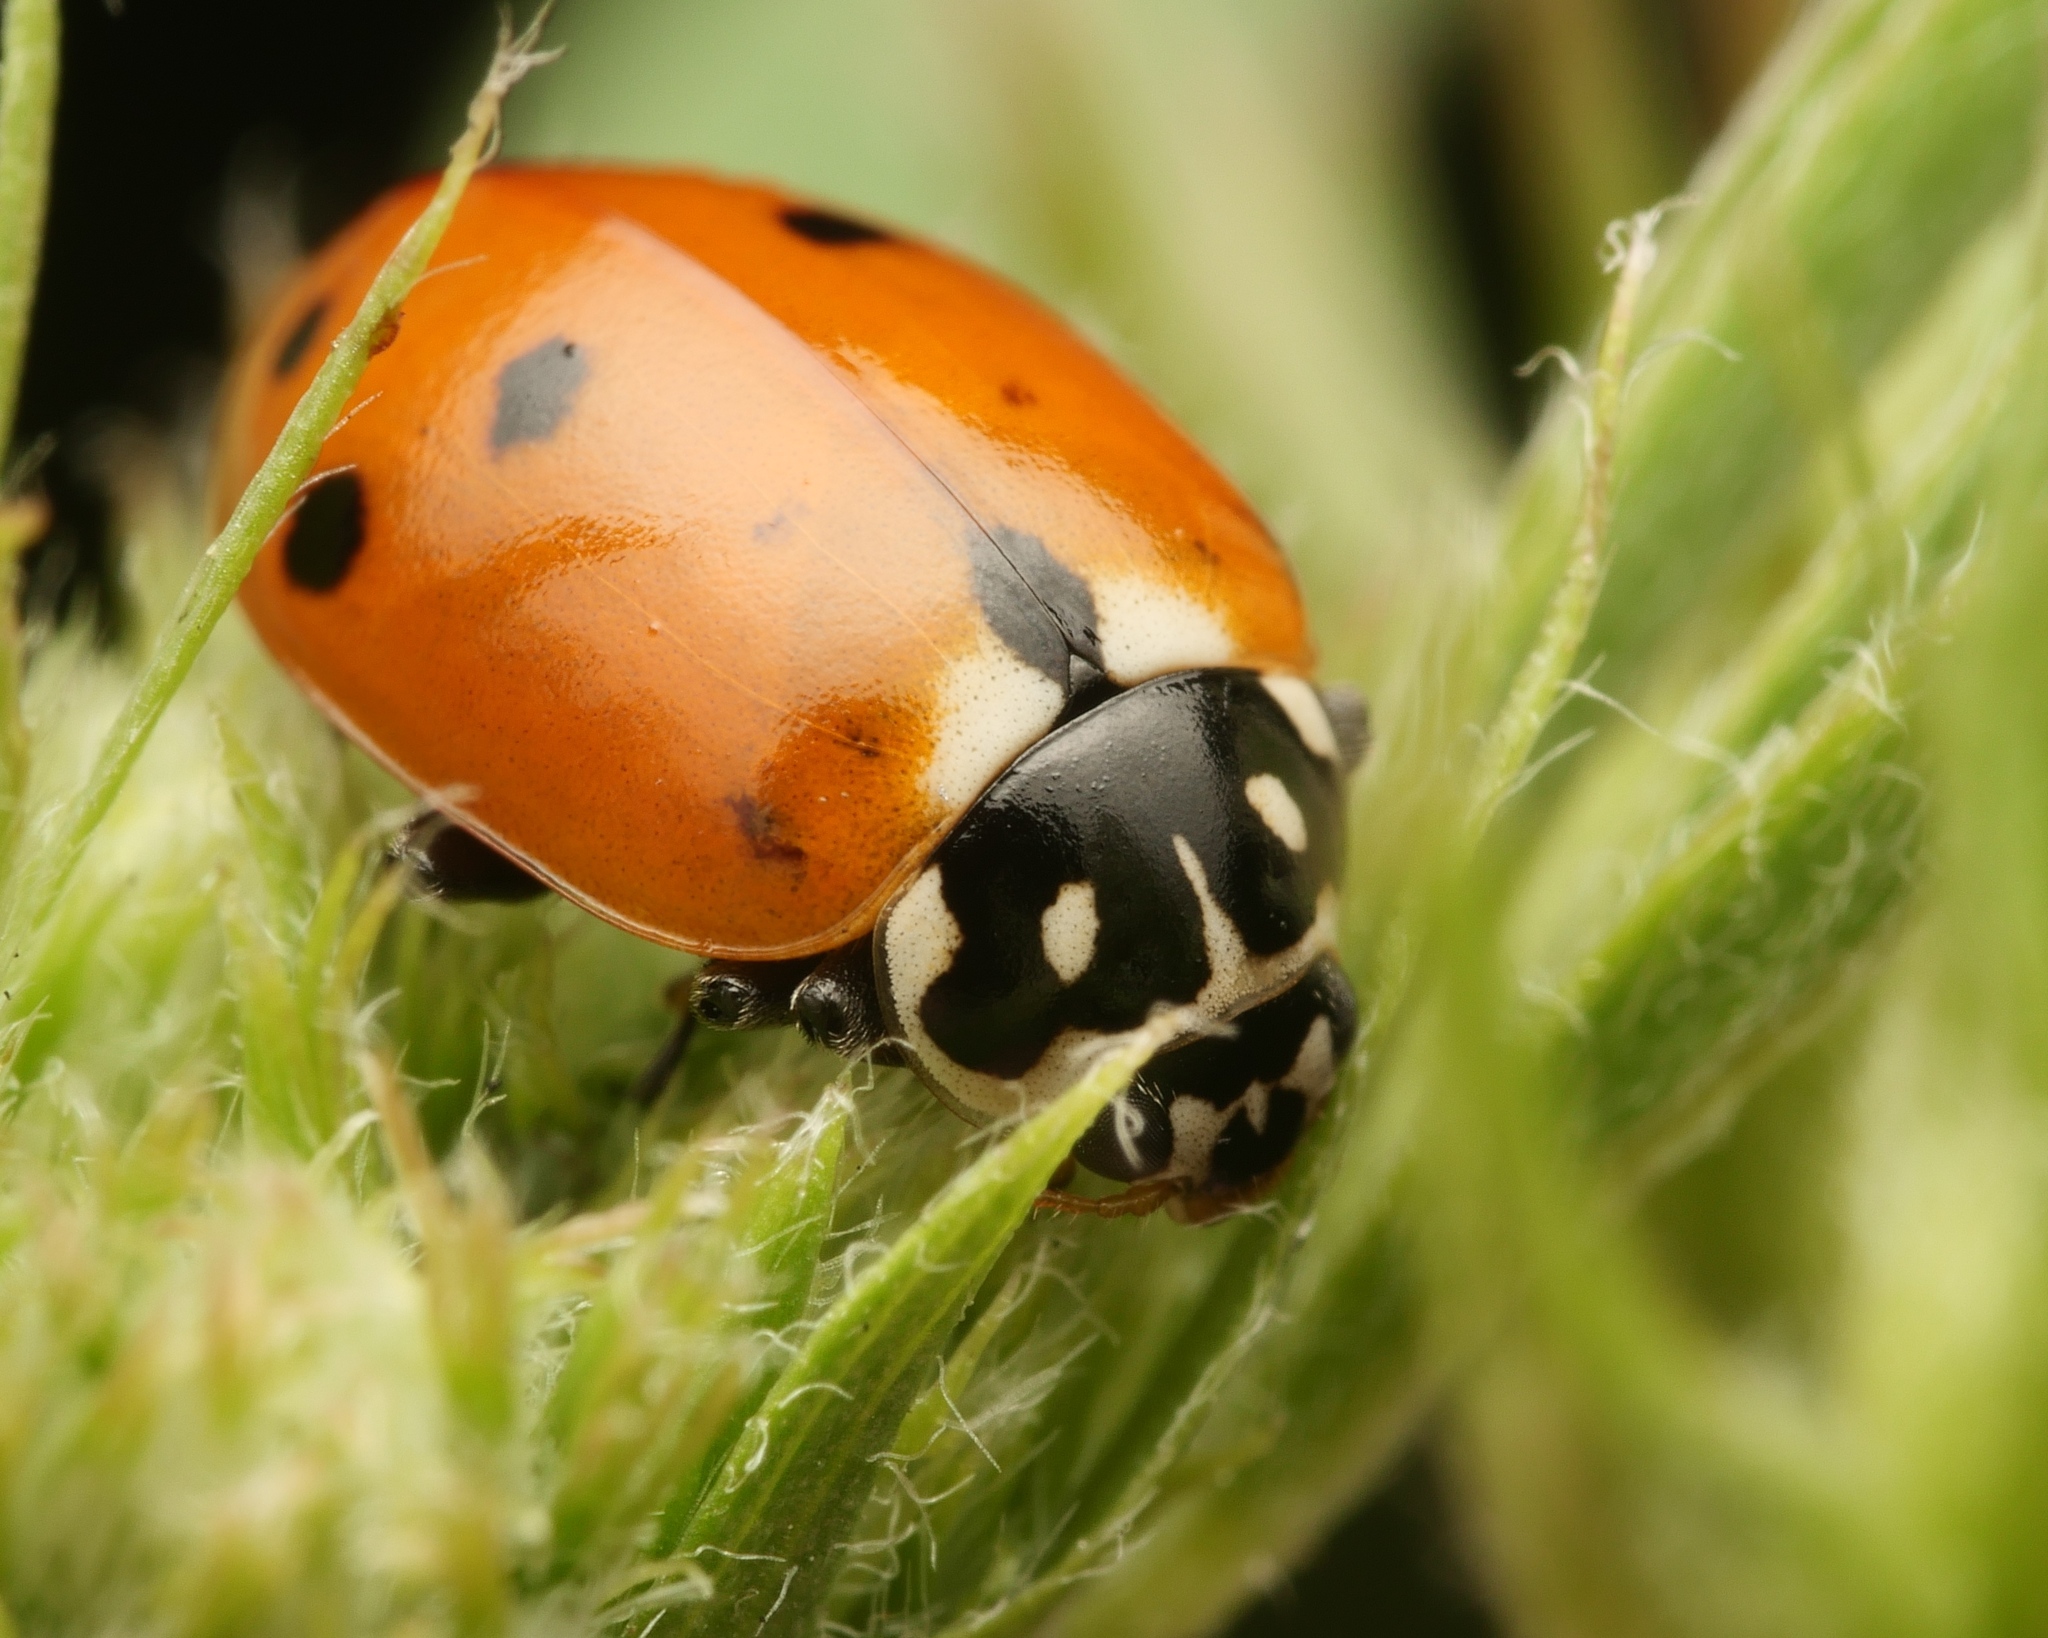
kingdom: Animalia
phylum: Arthropoda
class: Insecta
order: Coleoptera
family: Coccinellidae
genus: Hippodamia
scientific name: Hippodamia variegata
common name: Ladybird beetle
